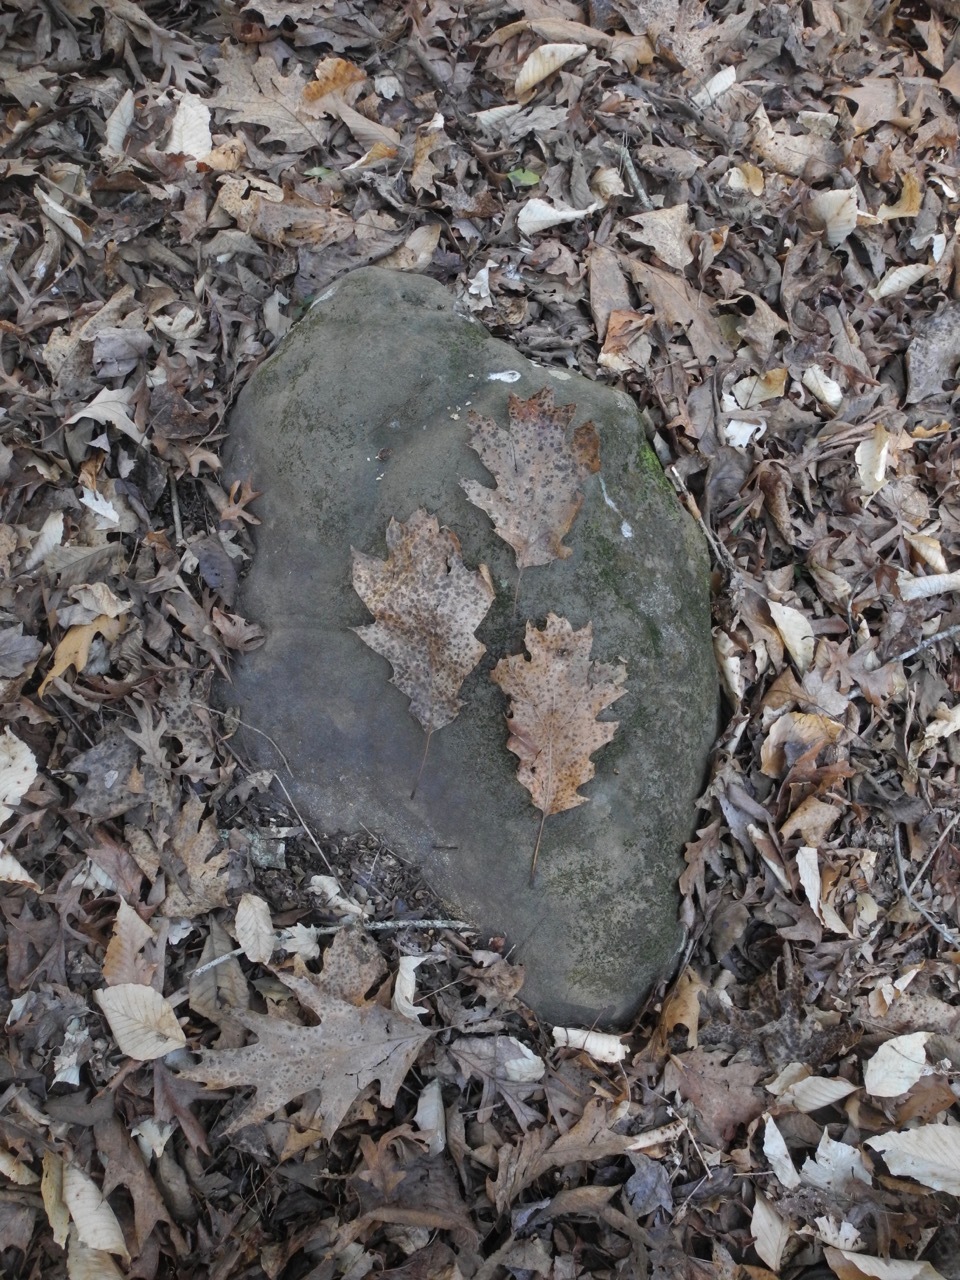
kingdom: Plantae
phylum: Tracheophyta
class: Magnoliopsida
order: Fagales
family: Fagaceae
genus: Quercus
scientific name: Quercus rubra
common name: Red oak
